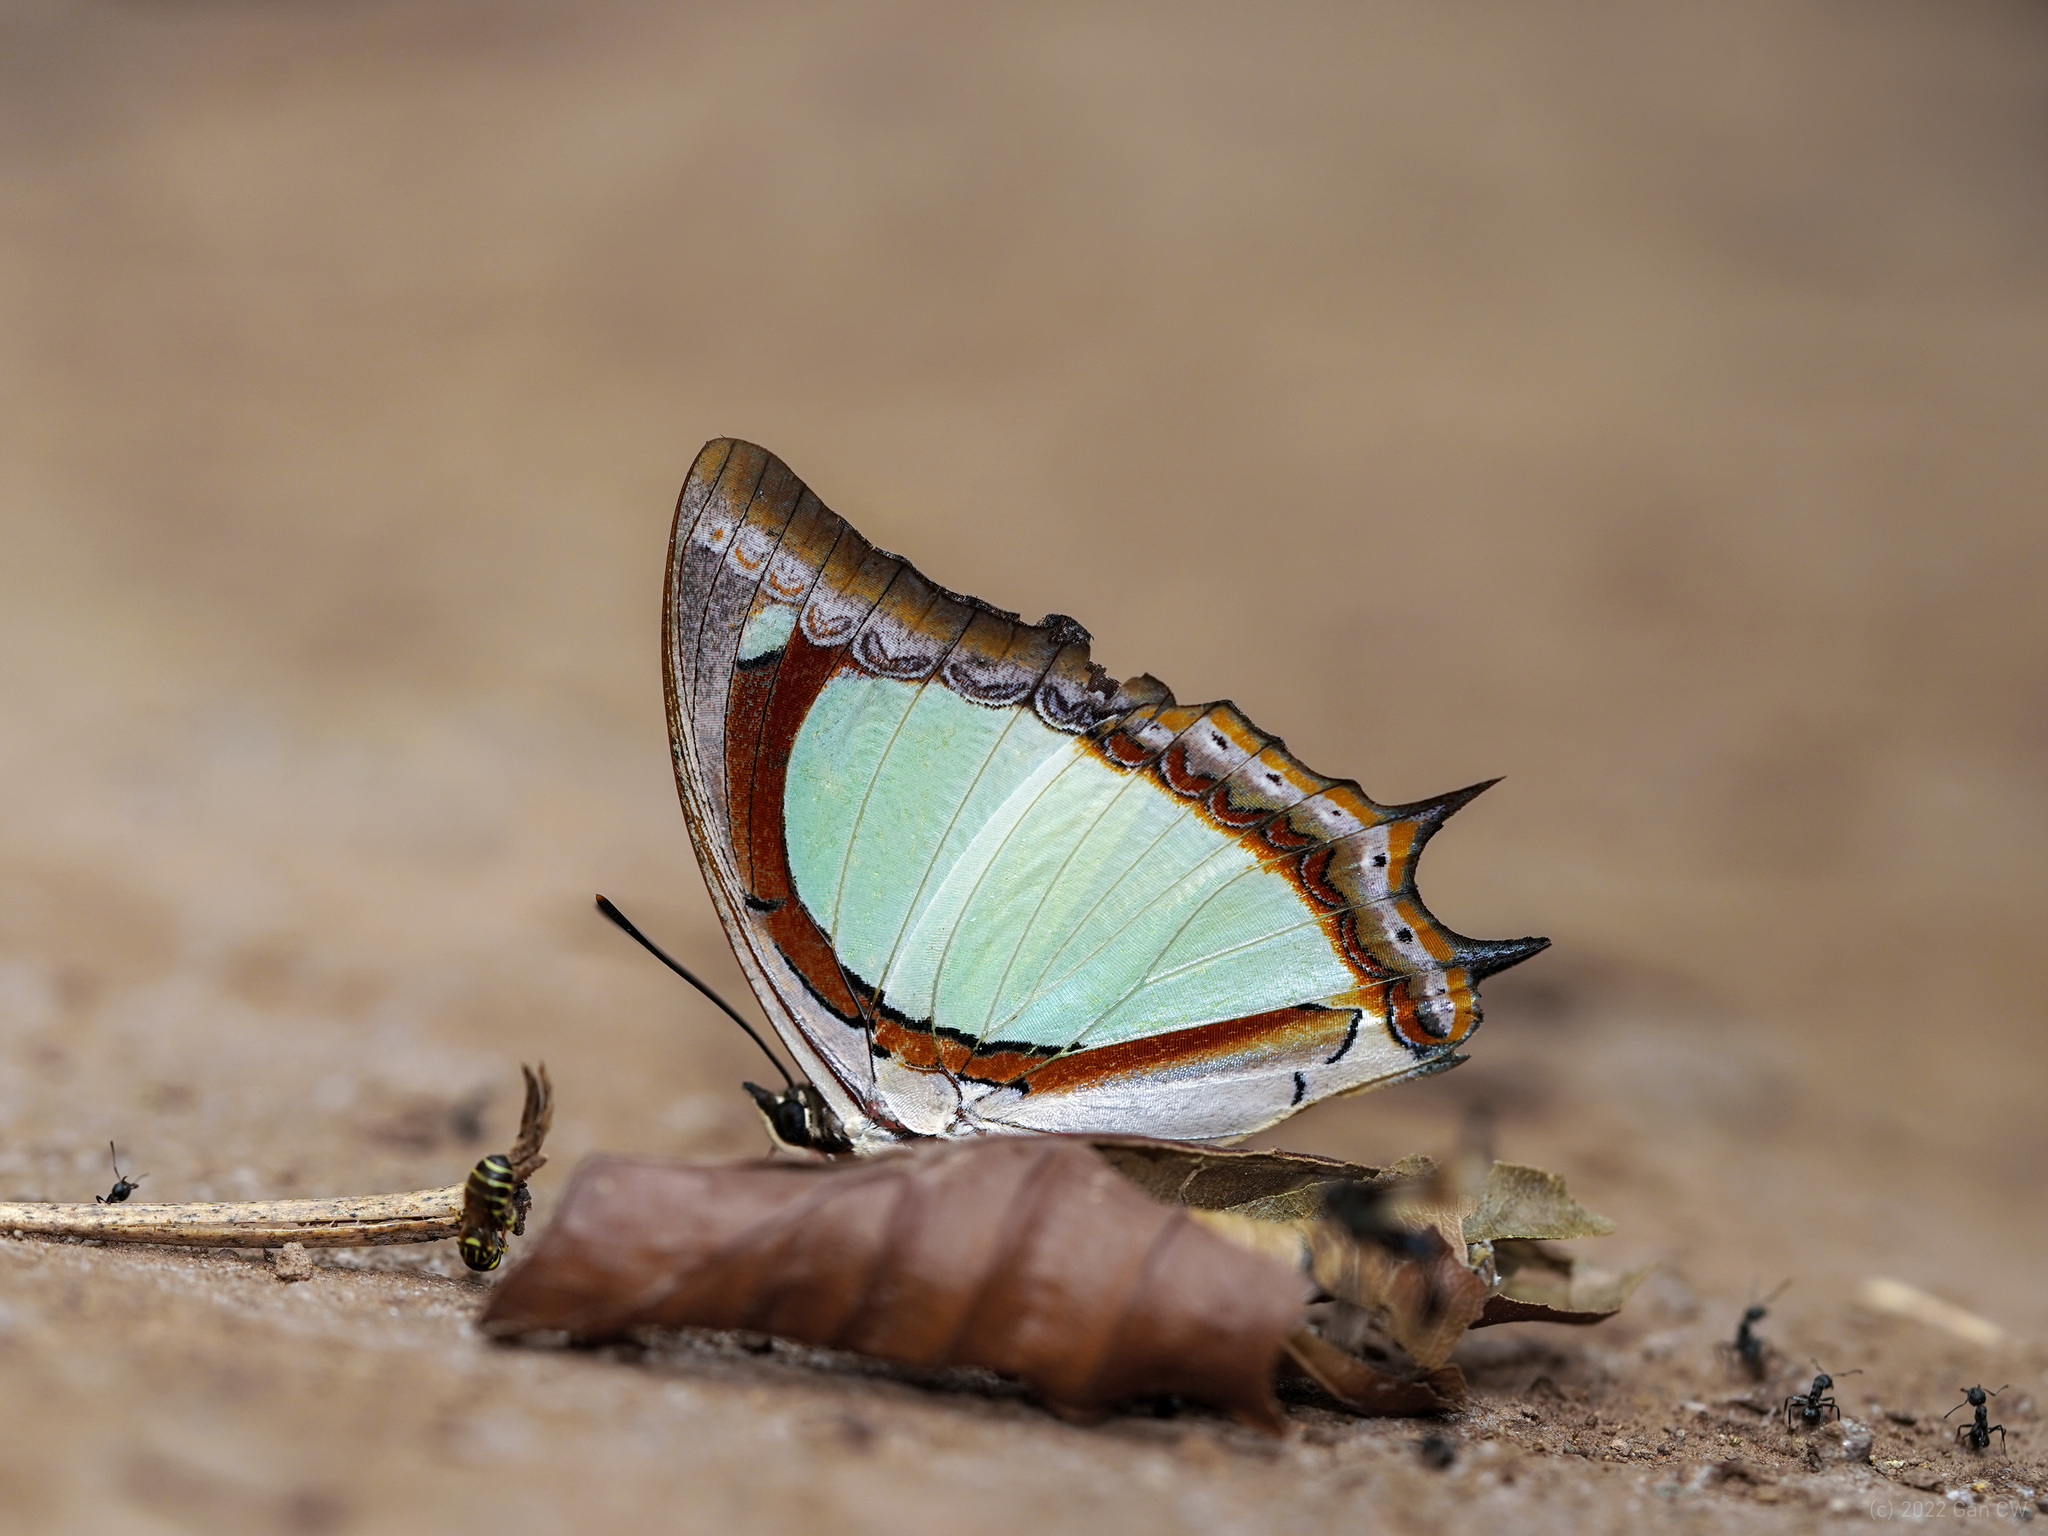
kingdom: Animalia
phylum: Arthropoda
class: Insecta
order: Lepidoptera
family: Nymphalidae
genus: Polyura
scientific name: Polyura jalysus
